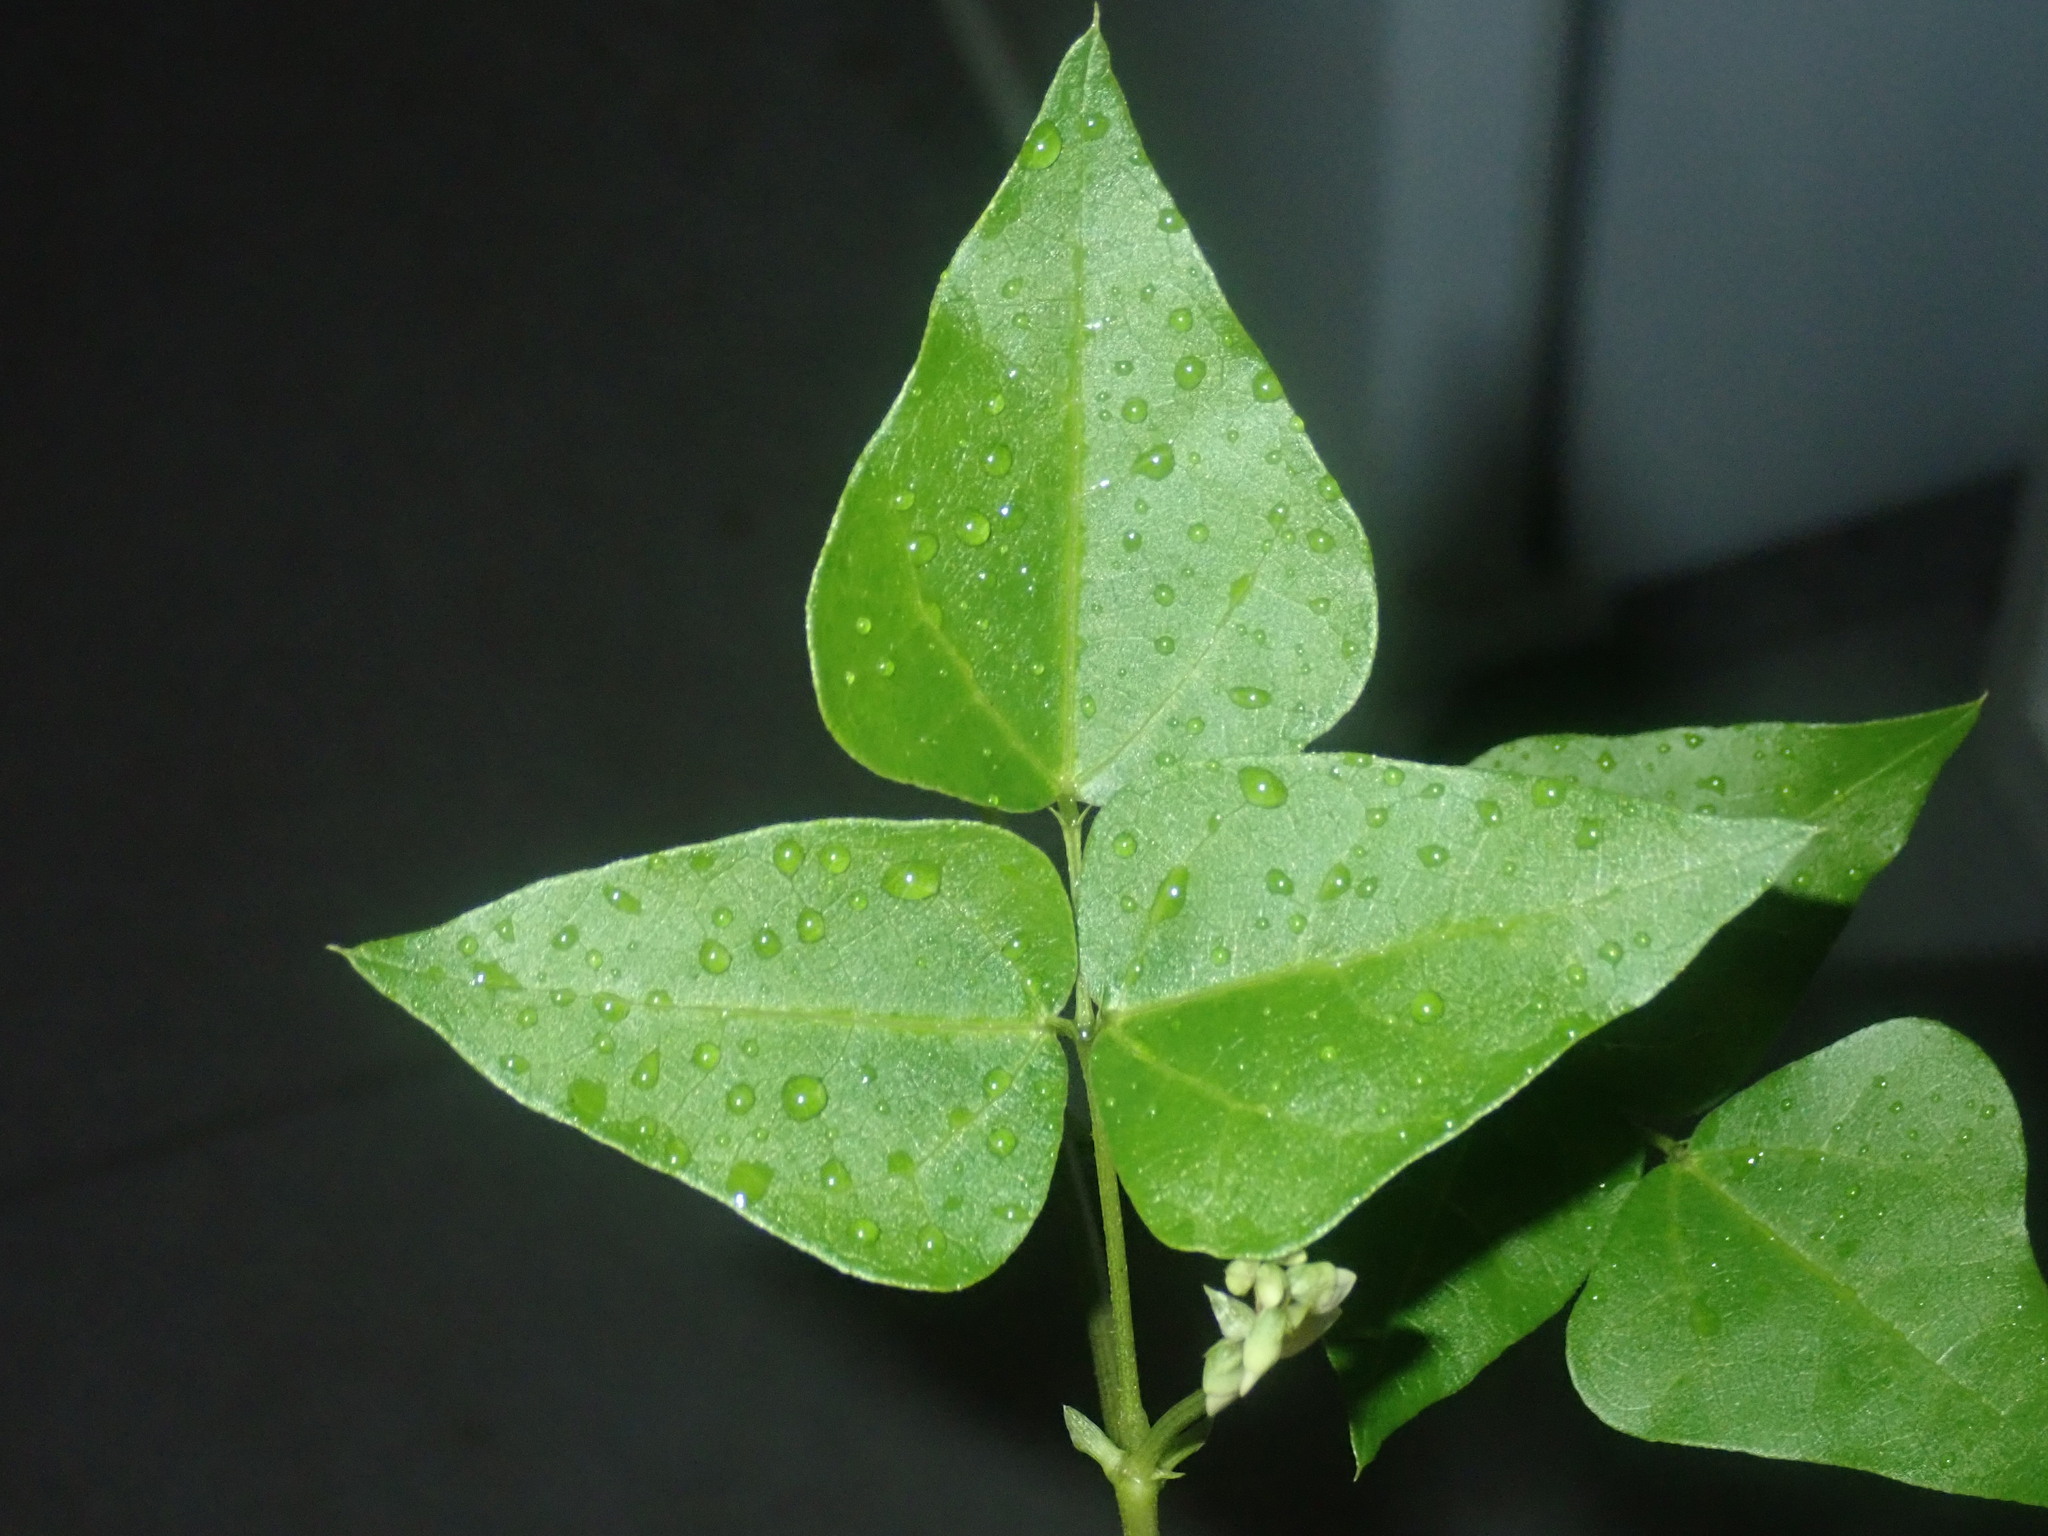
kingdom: Plantae
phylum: Tracheophyta
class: Magnoliopsida
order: Fabales
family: Fabaceae
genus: Dipogon
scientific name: Dipogon lignosus
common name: Okie bean
